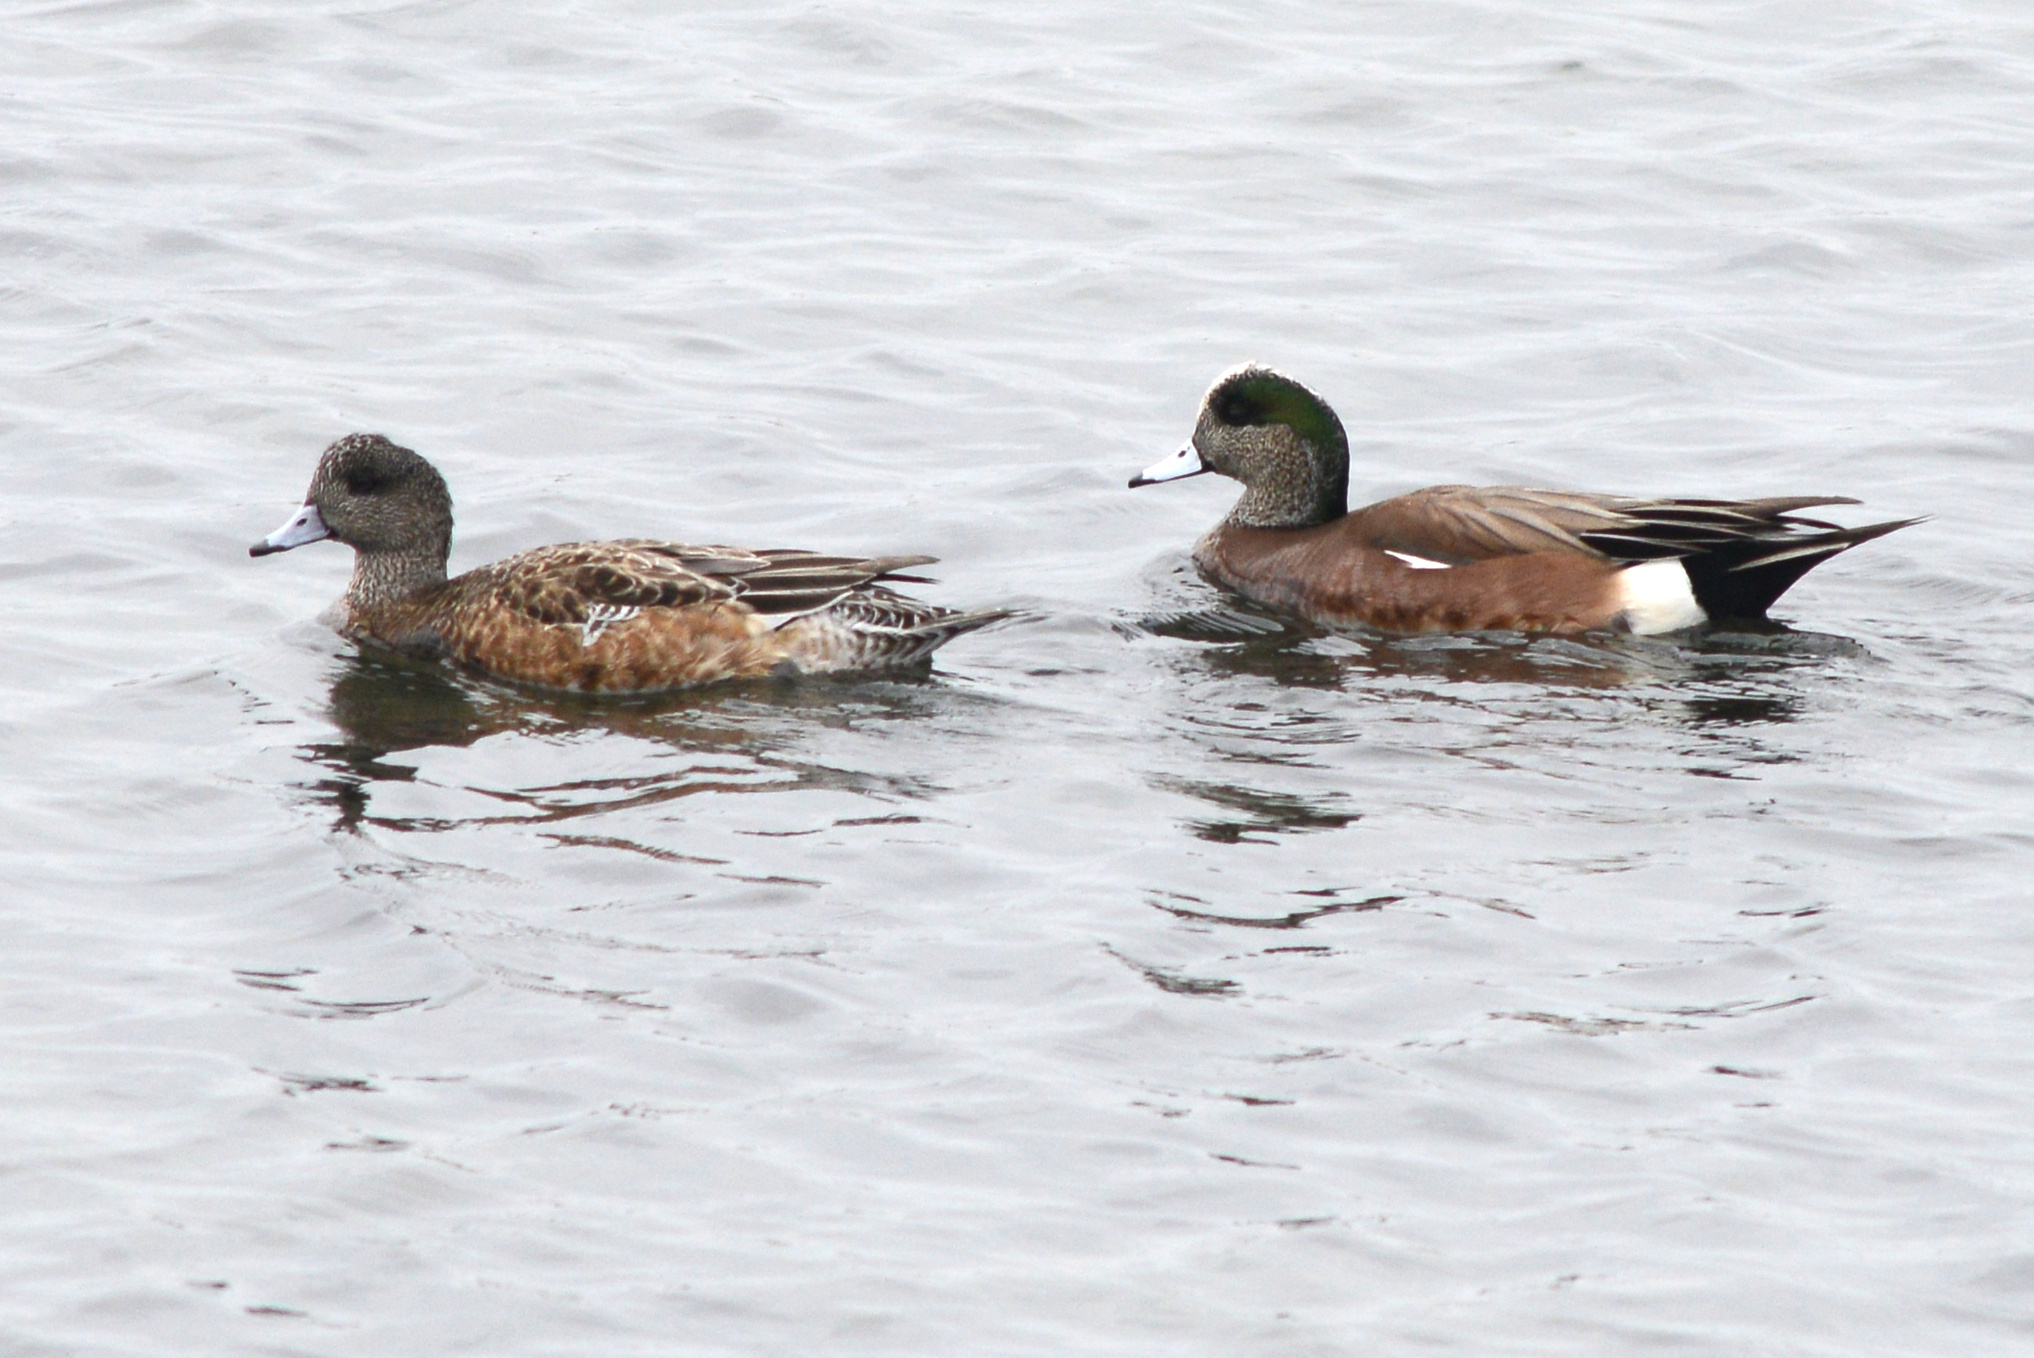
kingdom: Animalia
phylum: Chordata
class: Aves
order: Anseriformes
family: Anatidae
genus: Mareca
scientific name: Mareca americana
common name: American wigeon
